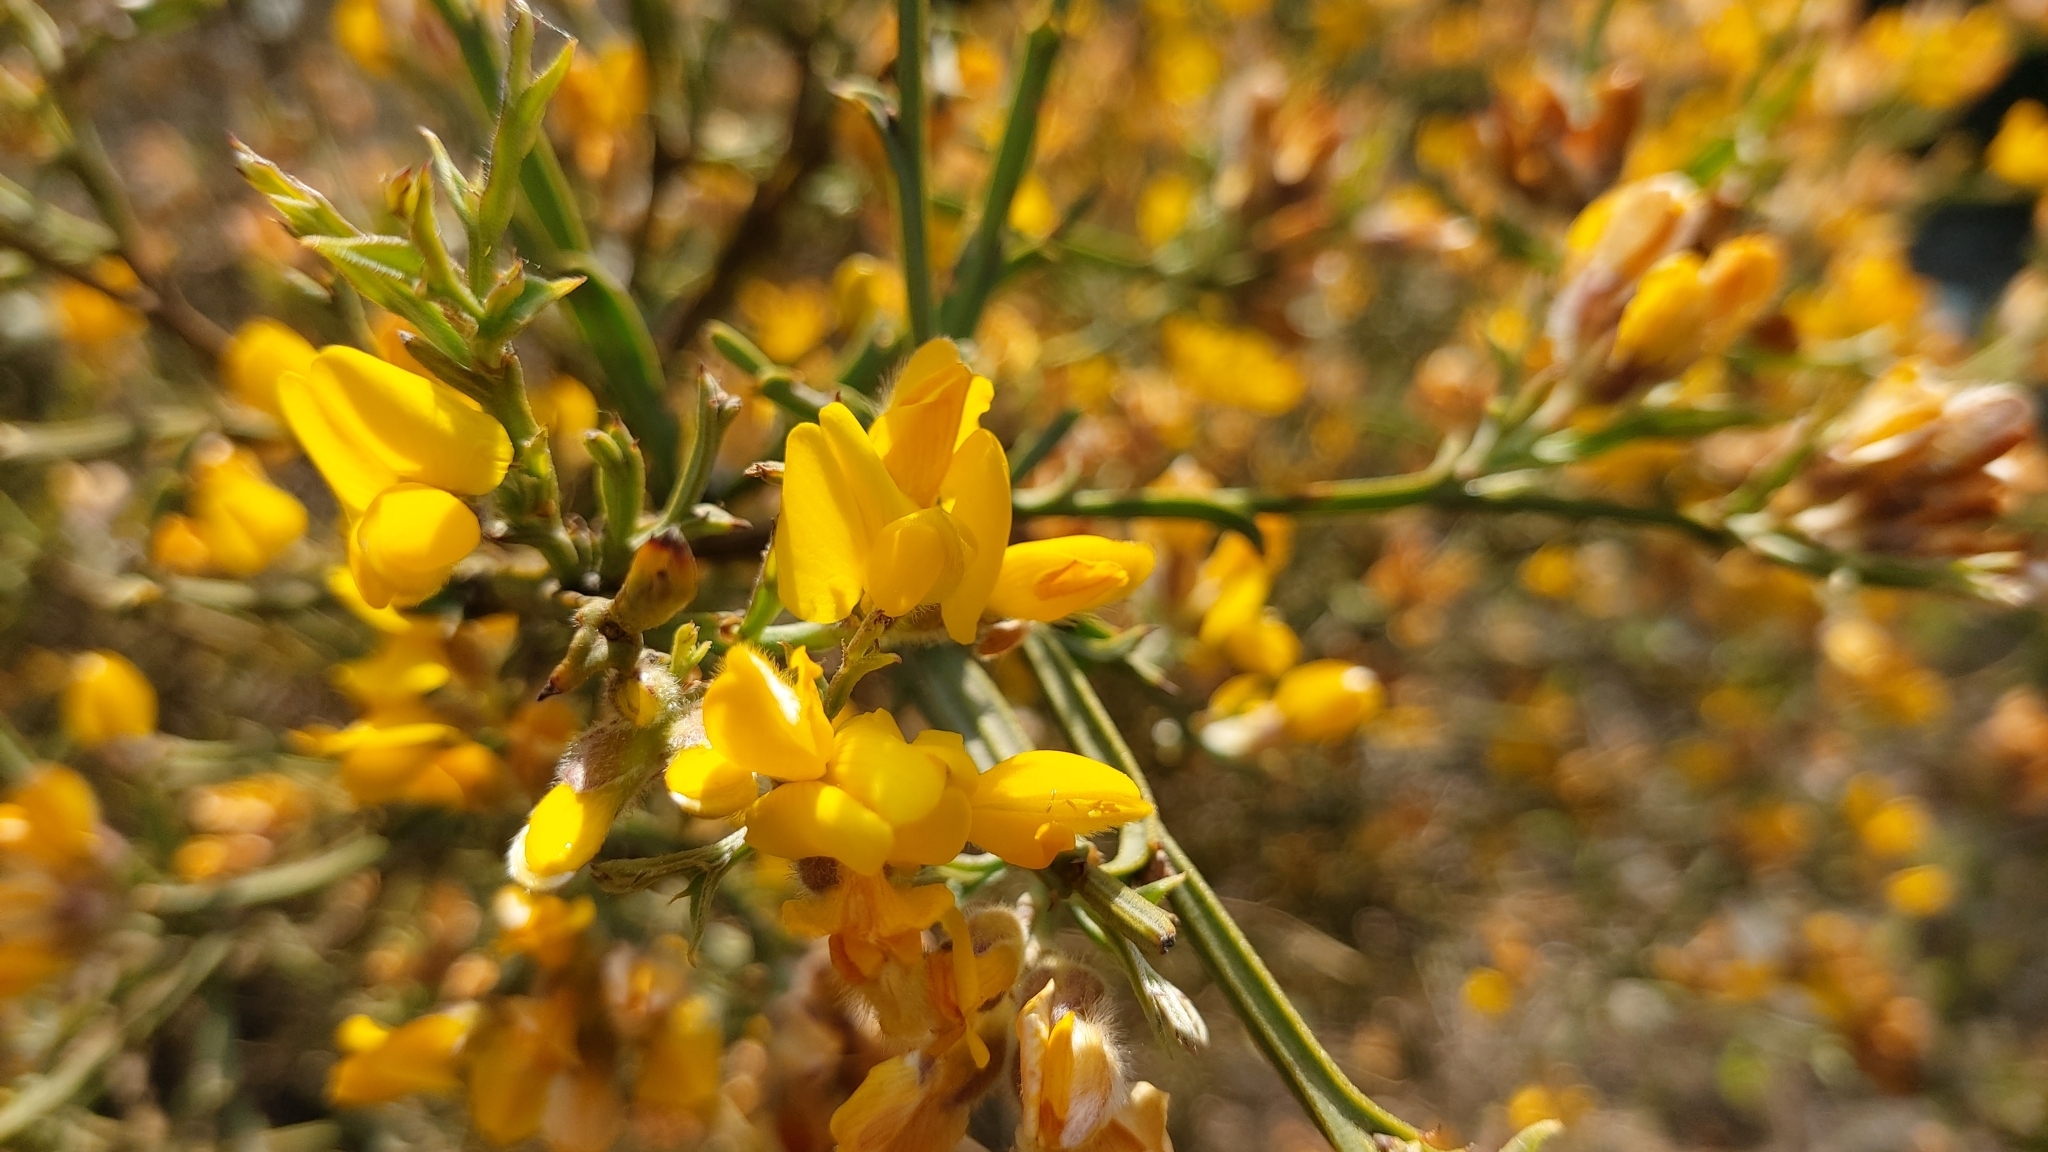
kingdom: Plantae
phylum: Tracheophyta
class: Magnoliopsida
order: Fabales
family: Fabaceae
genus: Genista
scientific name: Genista tridentata
